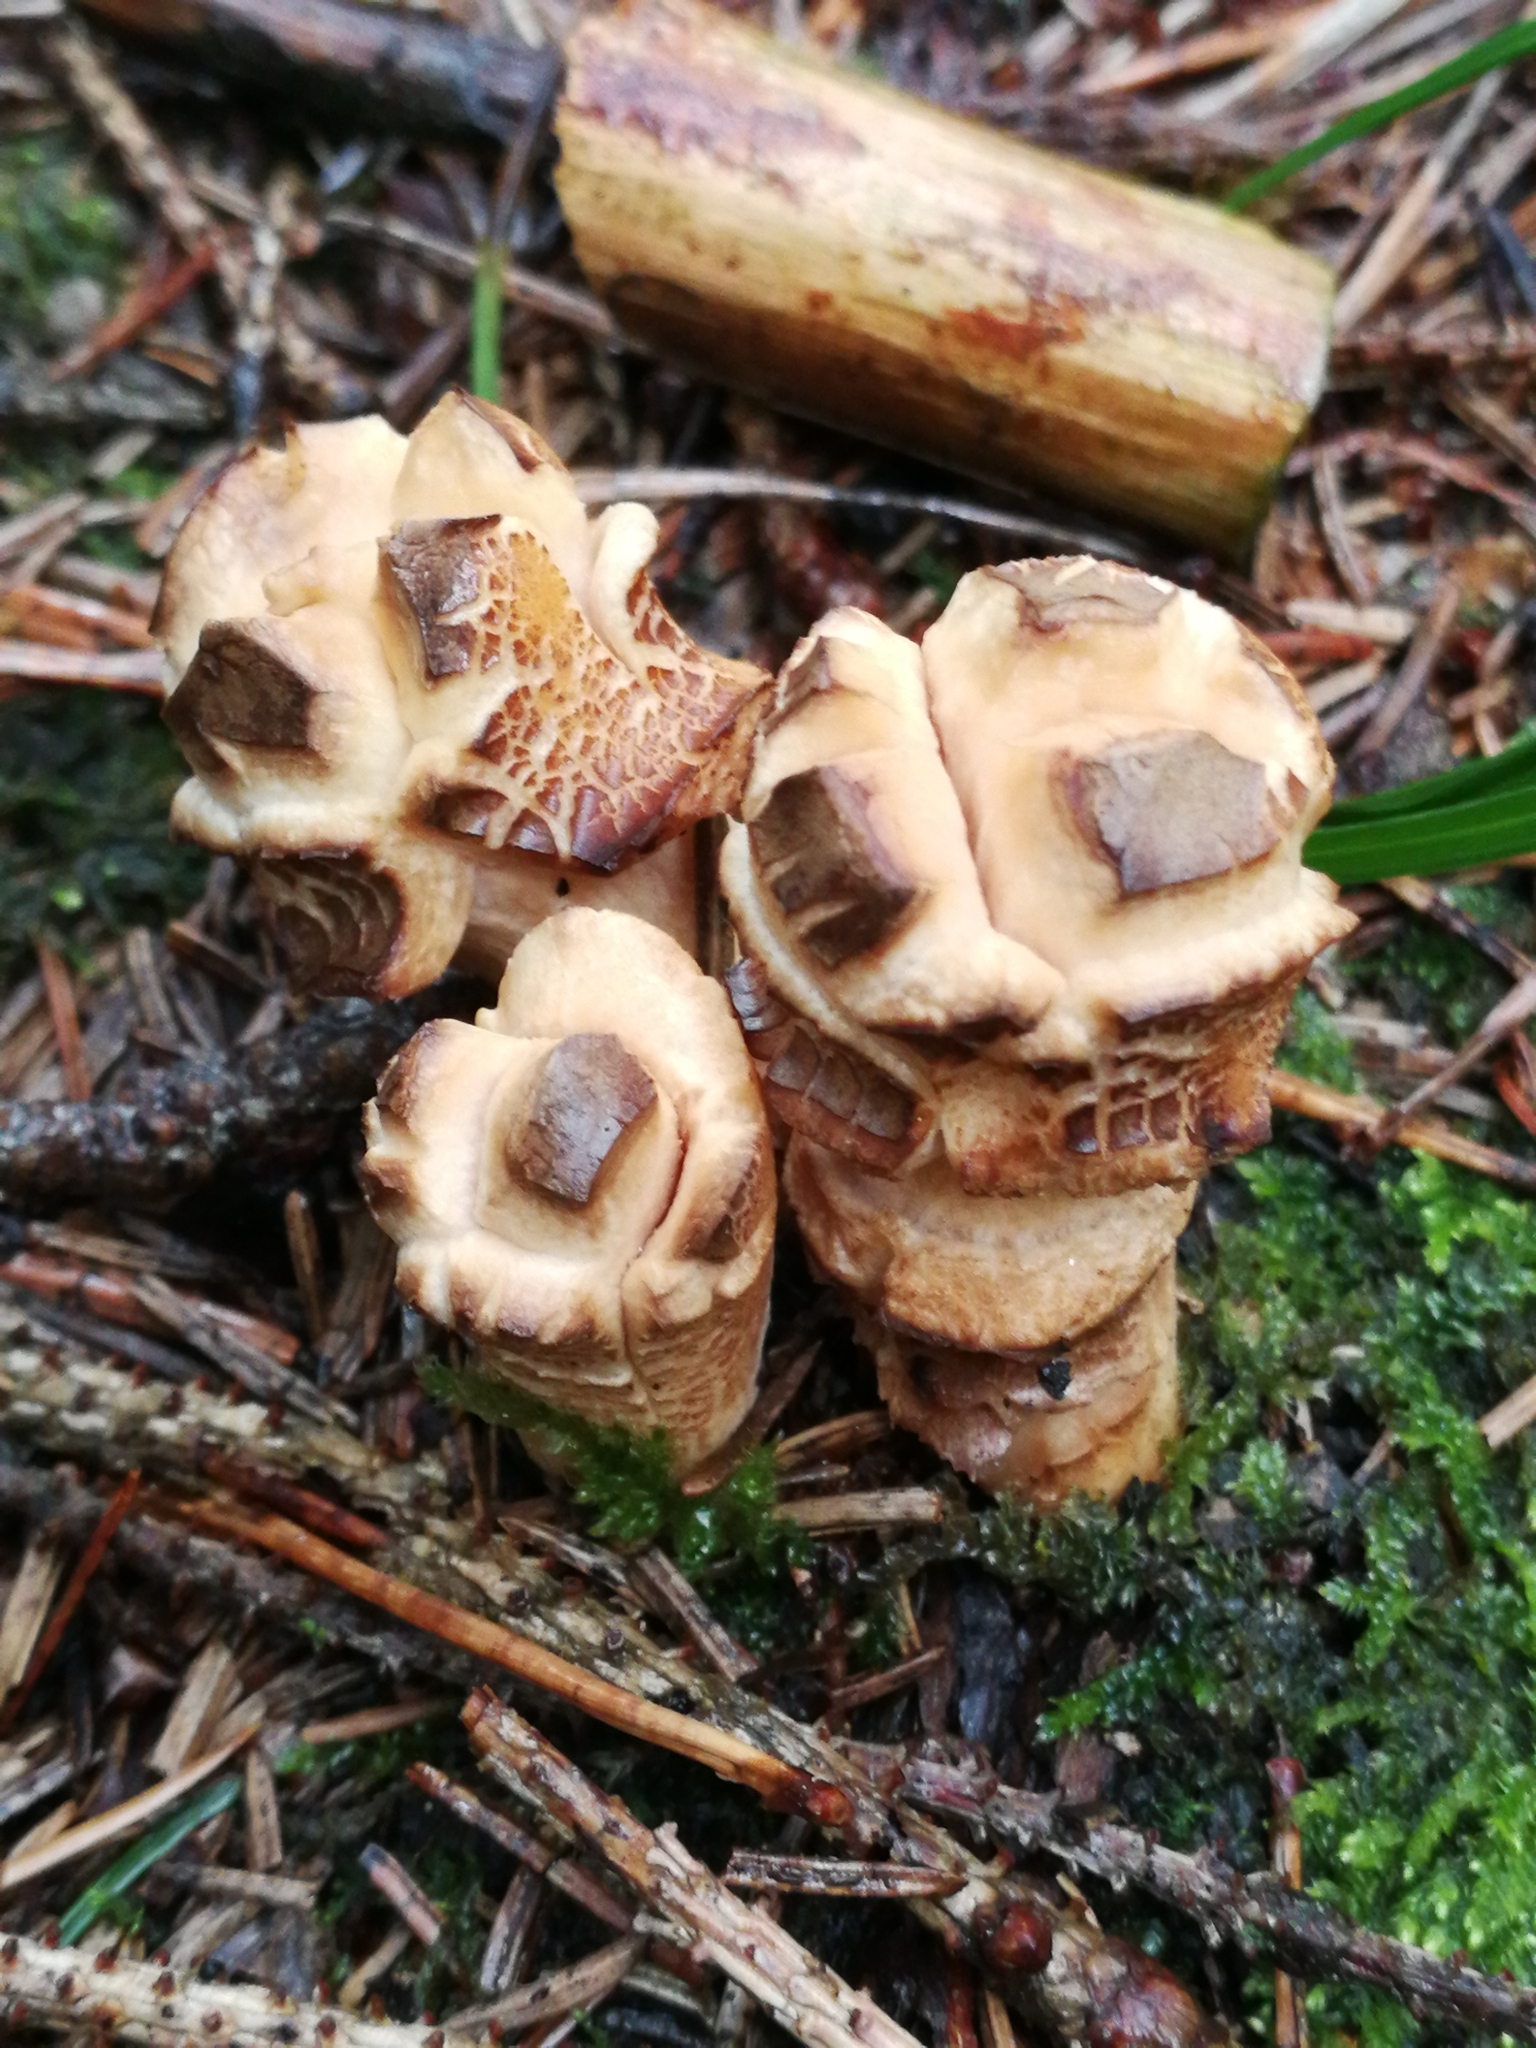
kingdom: Fungi
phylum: Basidiomycota
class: Agaricomycetes
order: Gomphales
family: Clavariadelphaceae
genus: Clavariadelphus
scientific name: Clavariadelphus pistillaris
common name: Giant club
